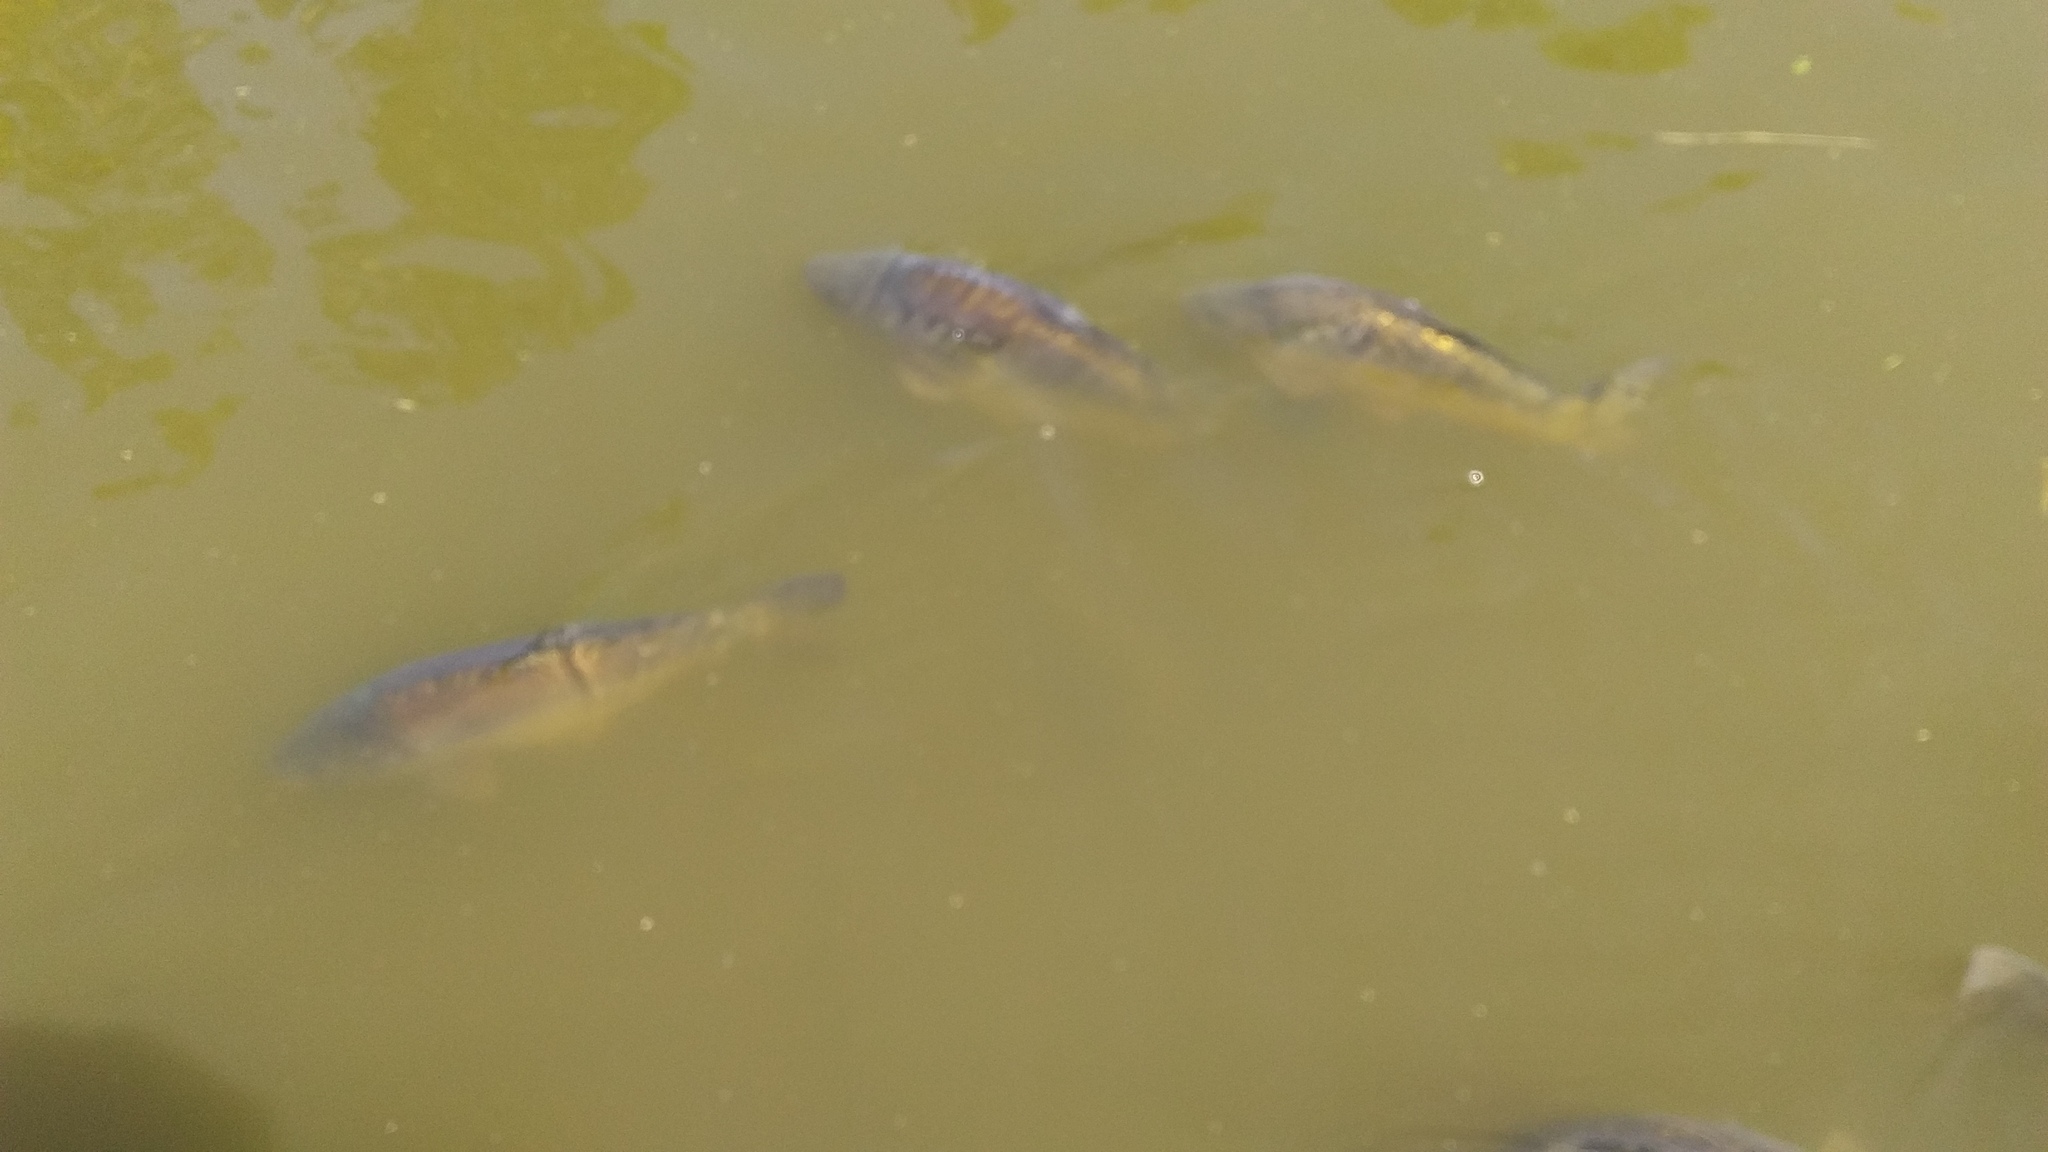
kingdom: Animalia
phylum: Chordata
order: Cypriniformes
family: Cyprinidae
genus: Cyprinus
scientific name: Cyprinus carpio
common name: Common carp
